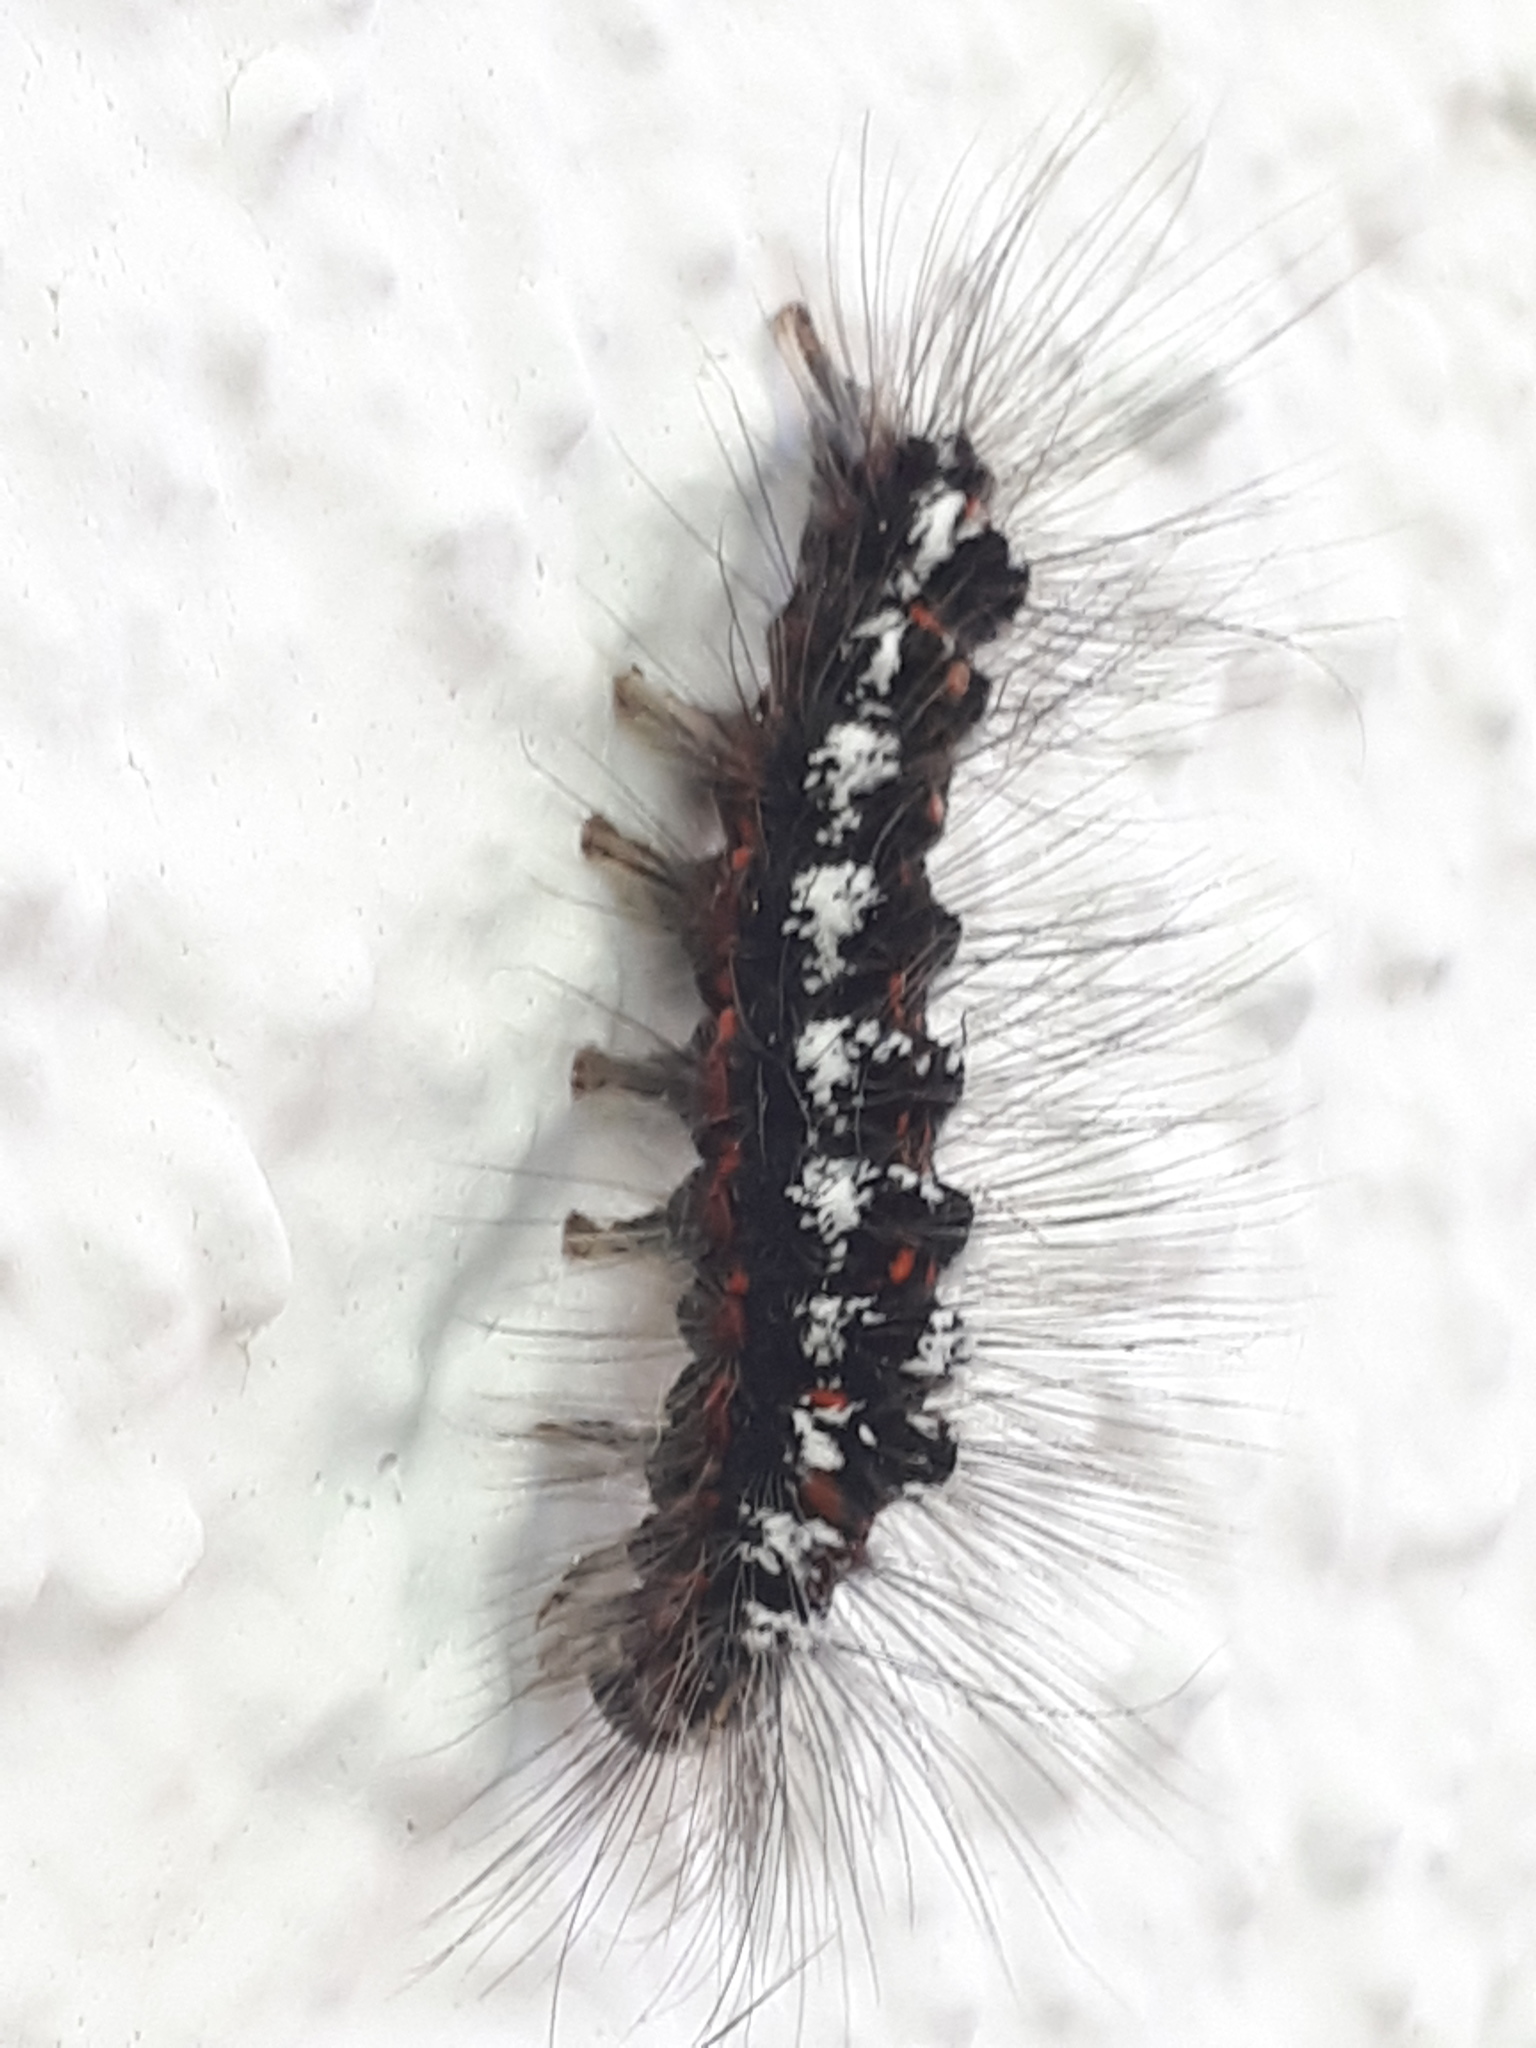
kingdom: Animalia
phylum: Arthropoda
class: Insecta
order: Lepidoptera
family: Erebidae
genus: Sphrageidus
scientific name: Sphrageidus similis
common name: Yellow-tail
